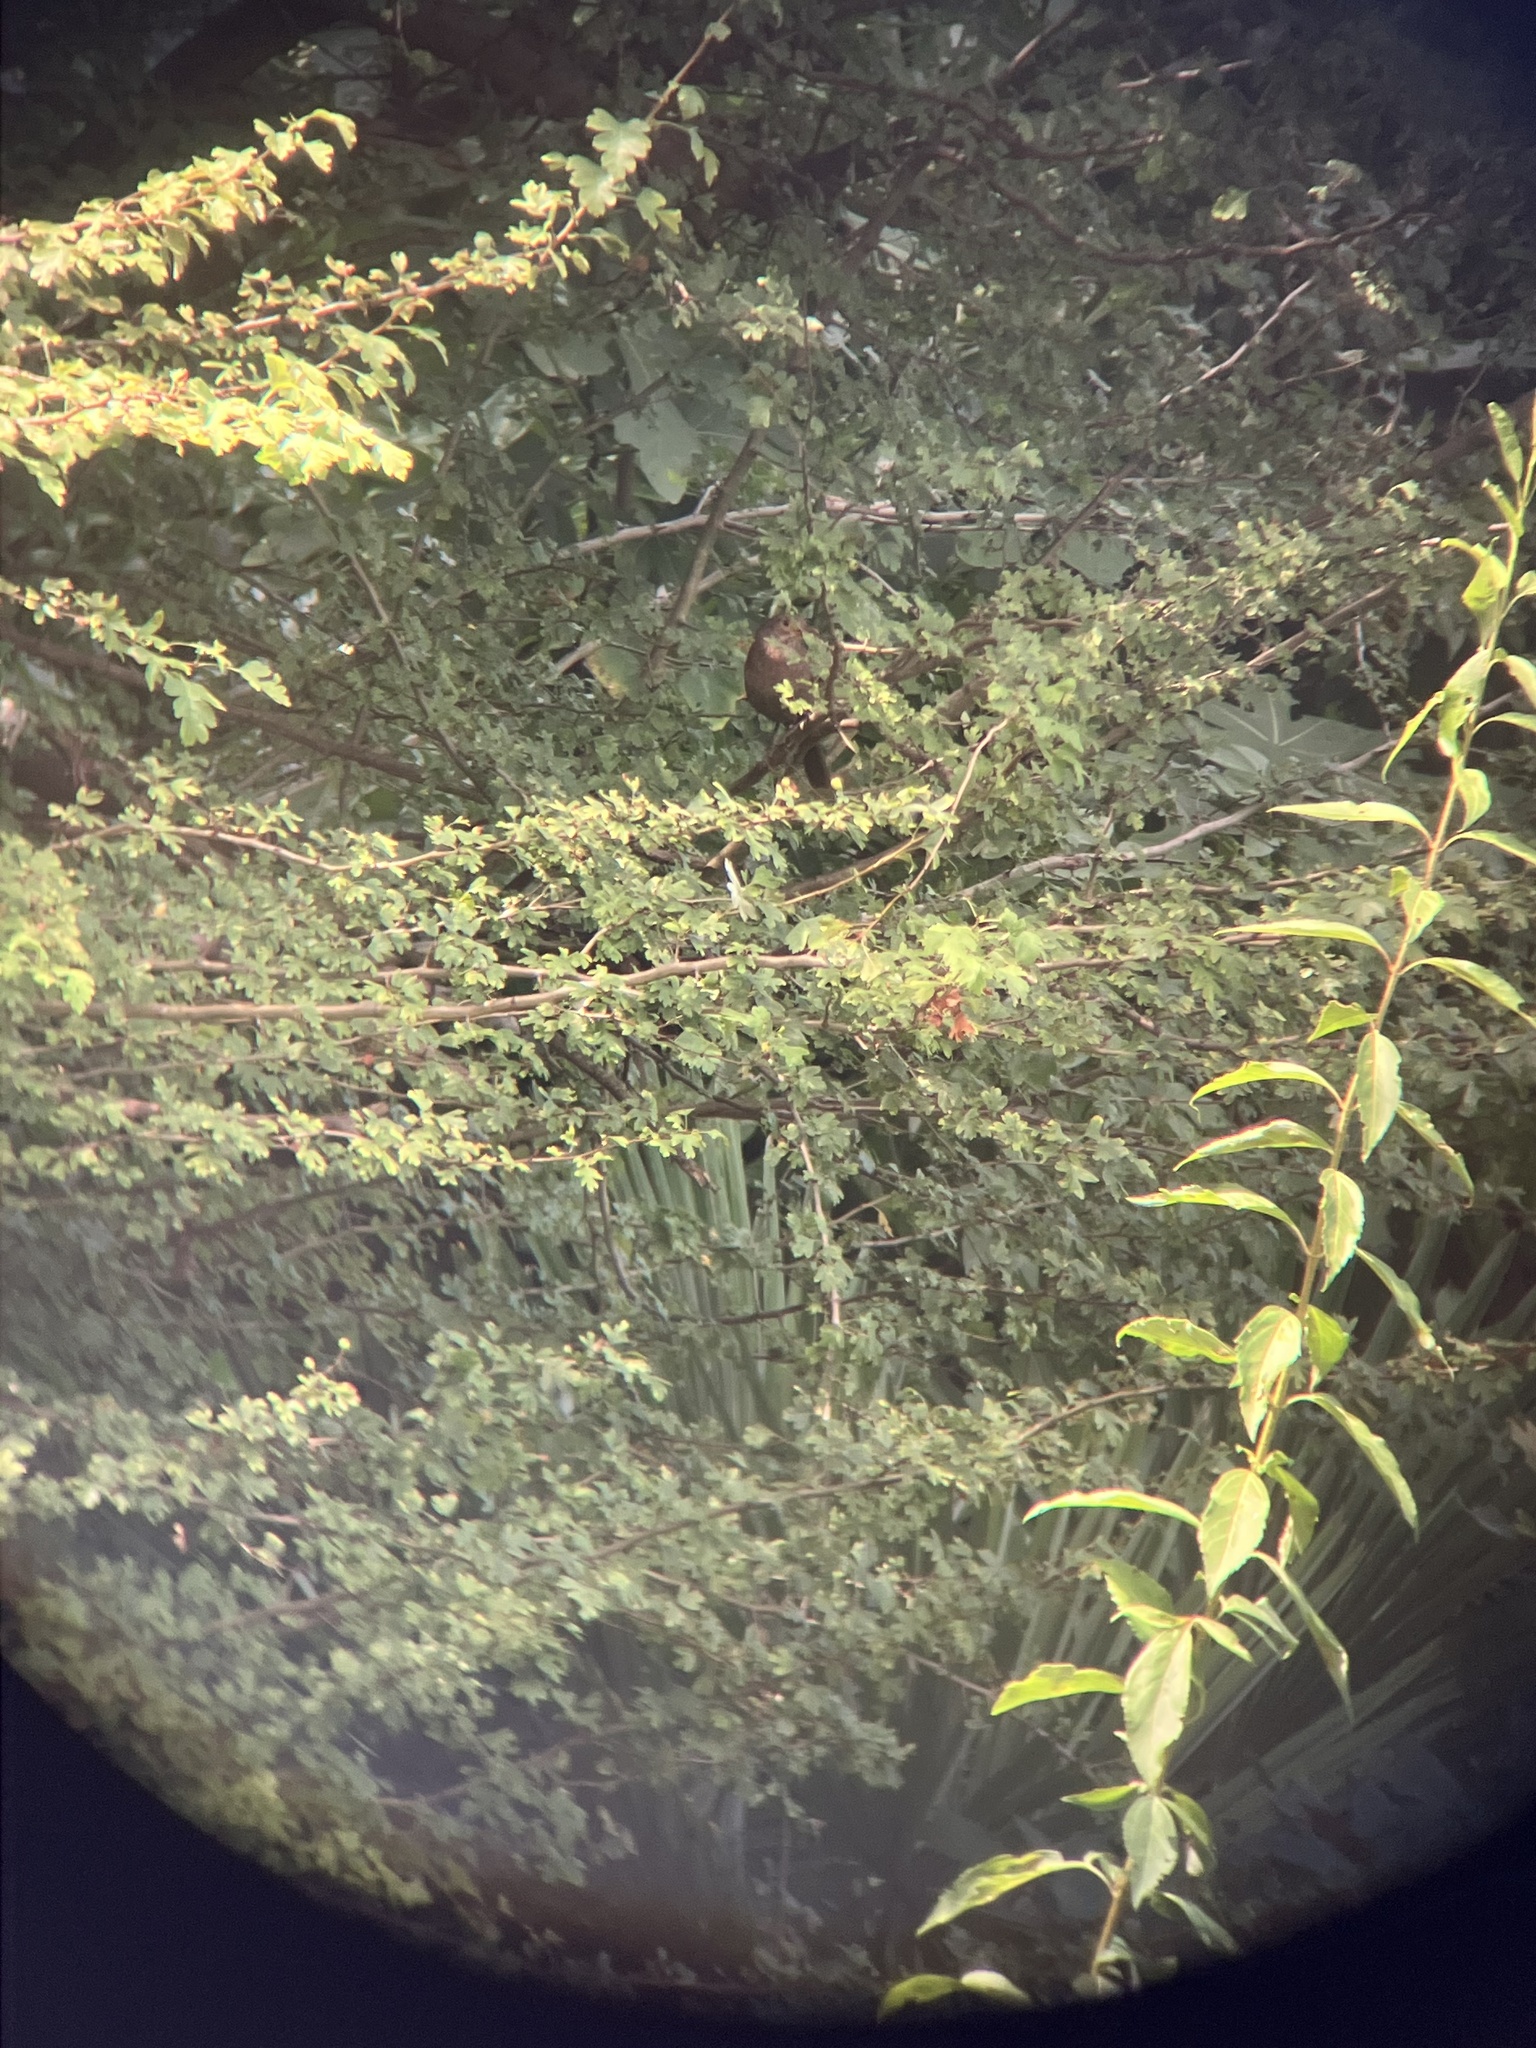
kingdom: Animalia
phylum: Chordata
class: Aves
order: Passeriformes
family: Turdidae
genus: Turdus
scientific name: Turdus merula
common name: Common blackbird
